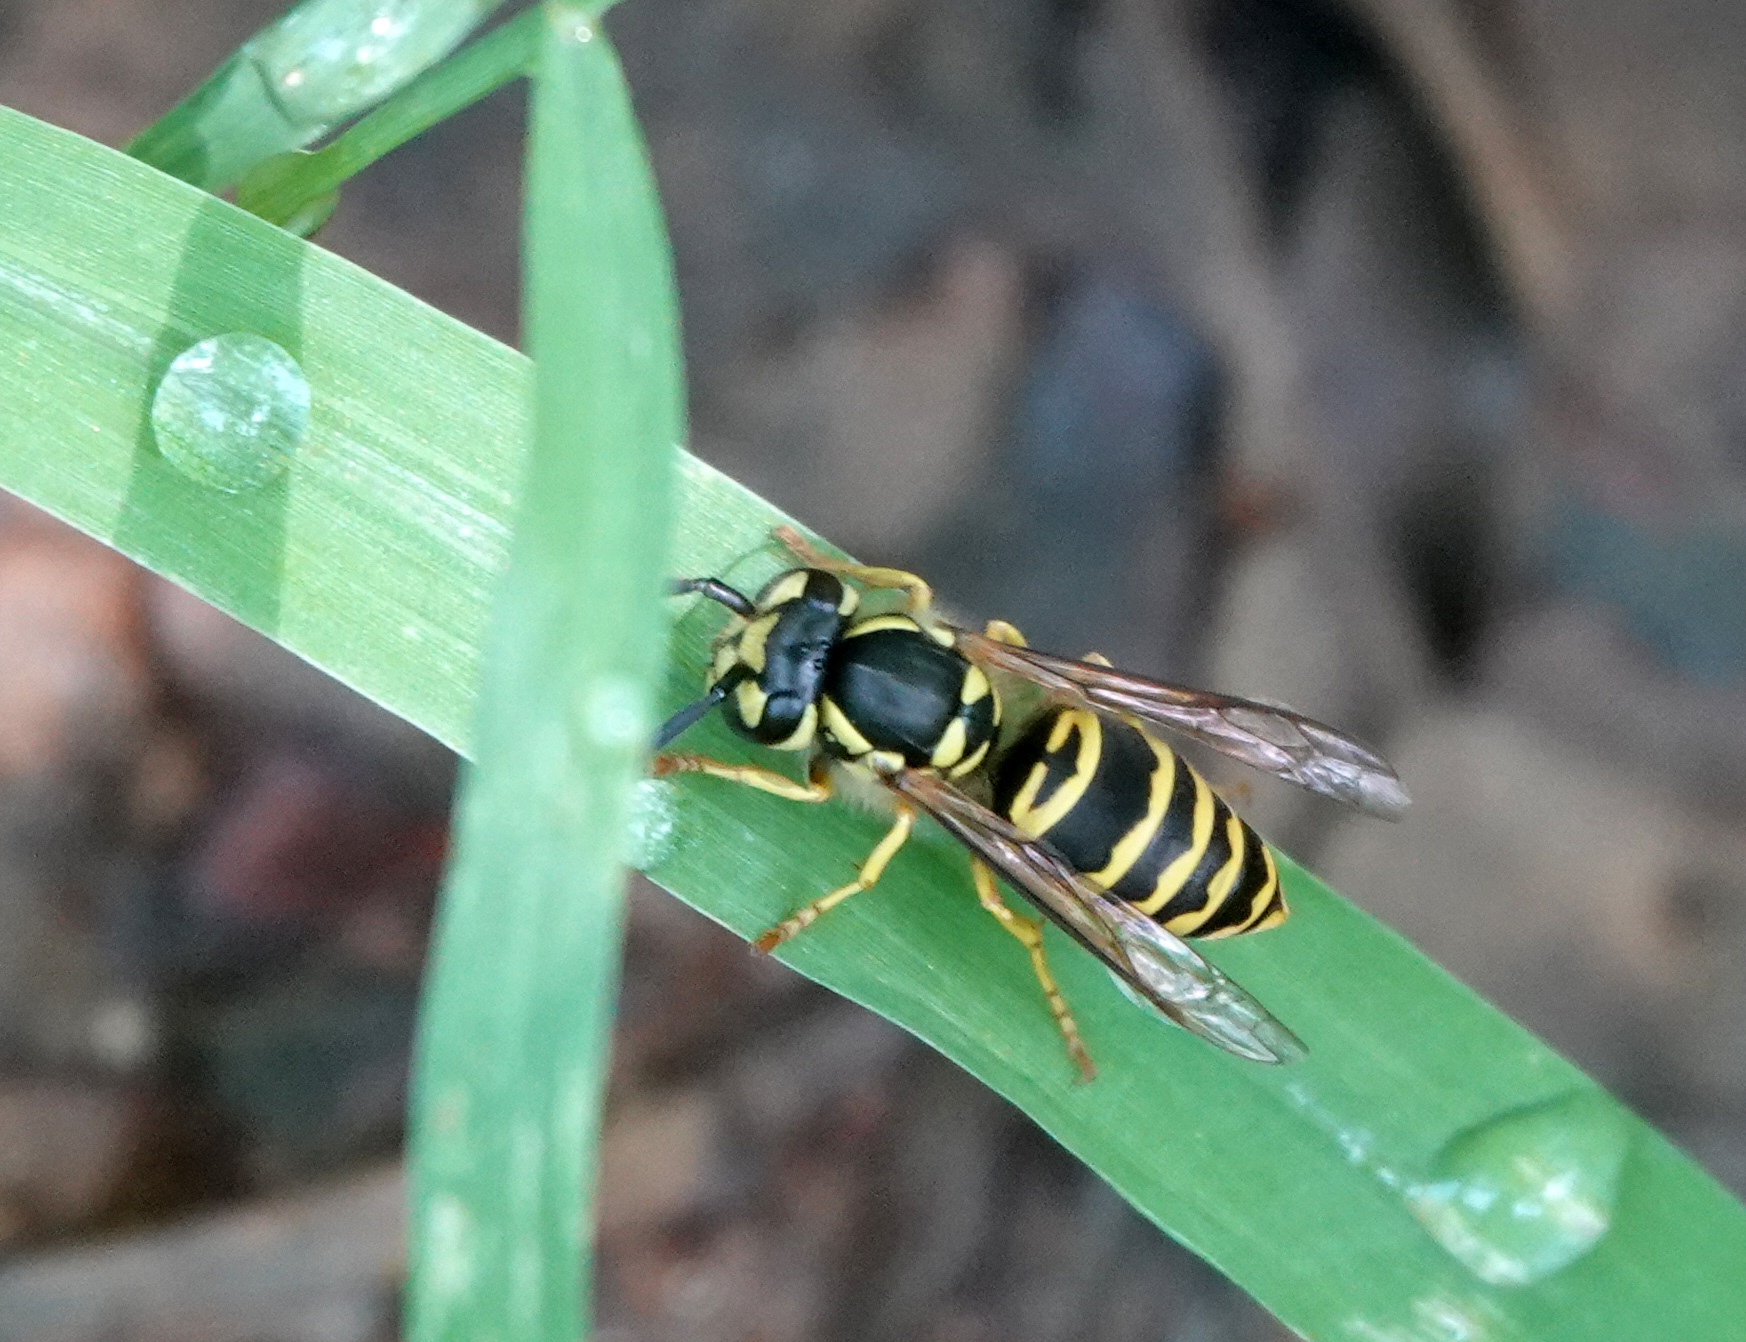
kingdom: Animalia
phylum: Arthropoda
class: Insecta
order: Hymenoptera
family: Vespidae
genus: Vespula
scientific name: Vespula maculifrons
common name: Eastern yellowjacket
